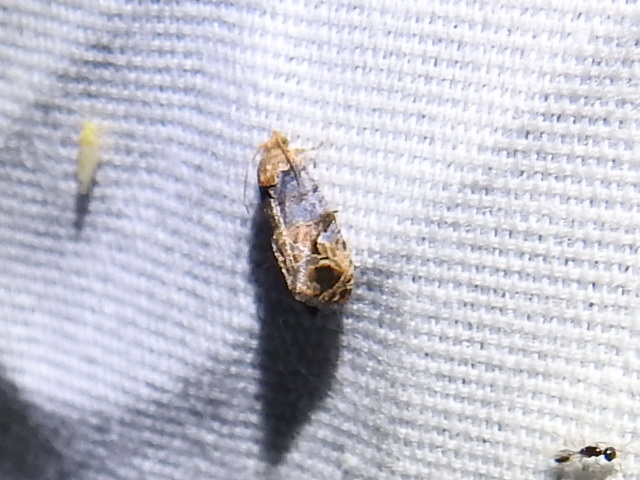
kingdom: Animalia
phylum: Arthropoda
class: Insecta
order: Lepidoptera
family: Tortricidae
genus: Paralobesia
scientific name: Paralobesia viteana
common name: Grape berry moth
